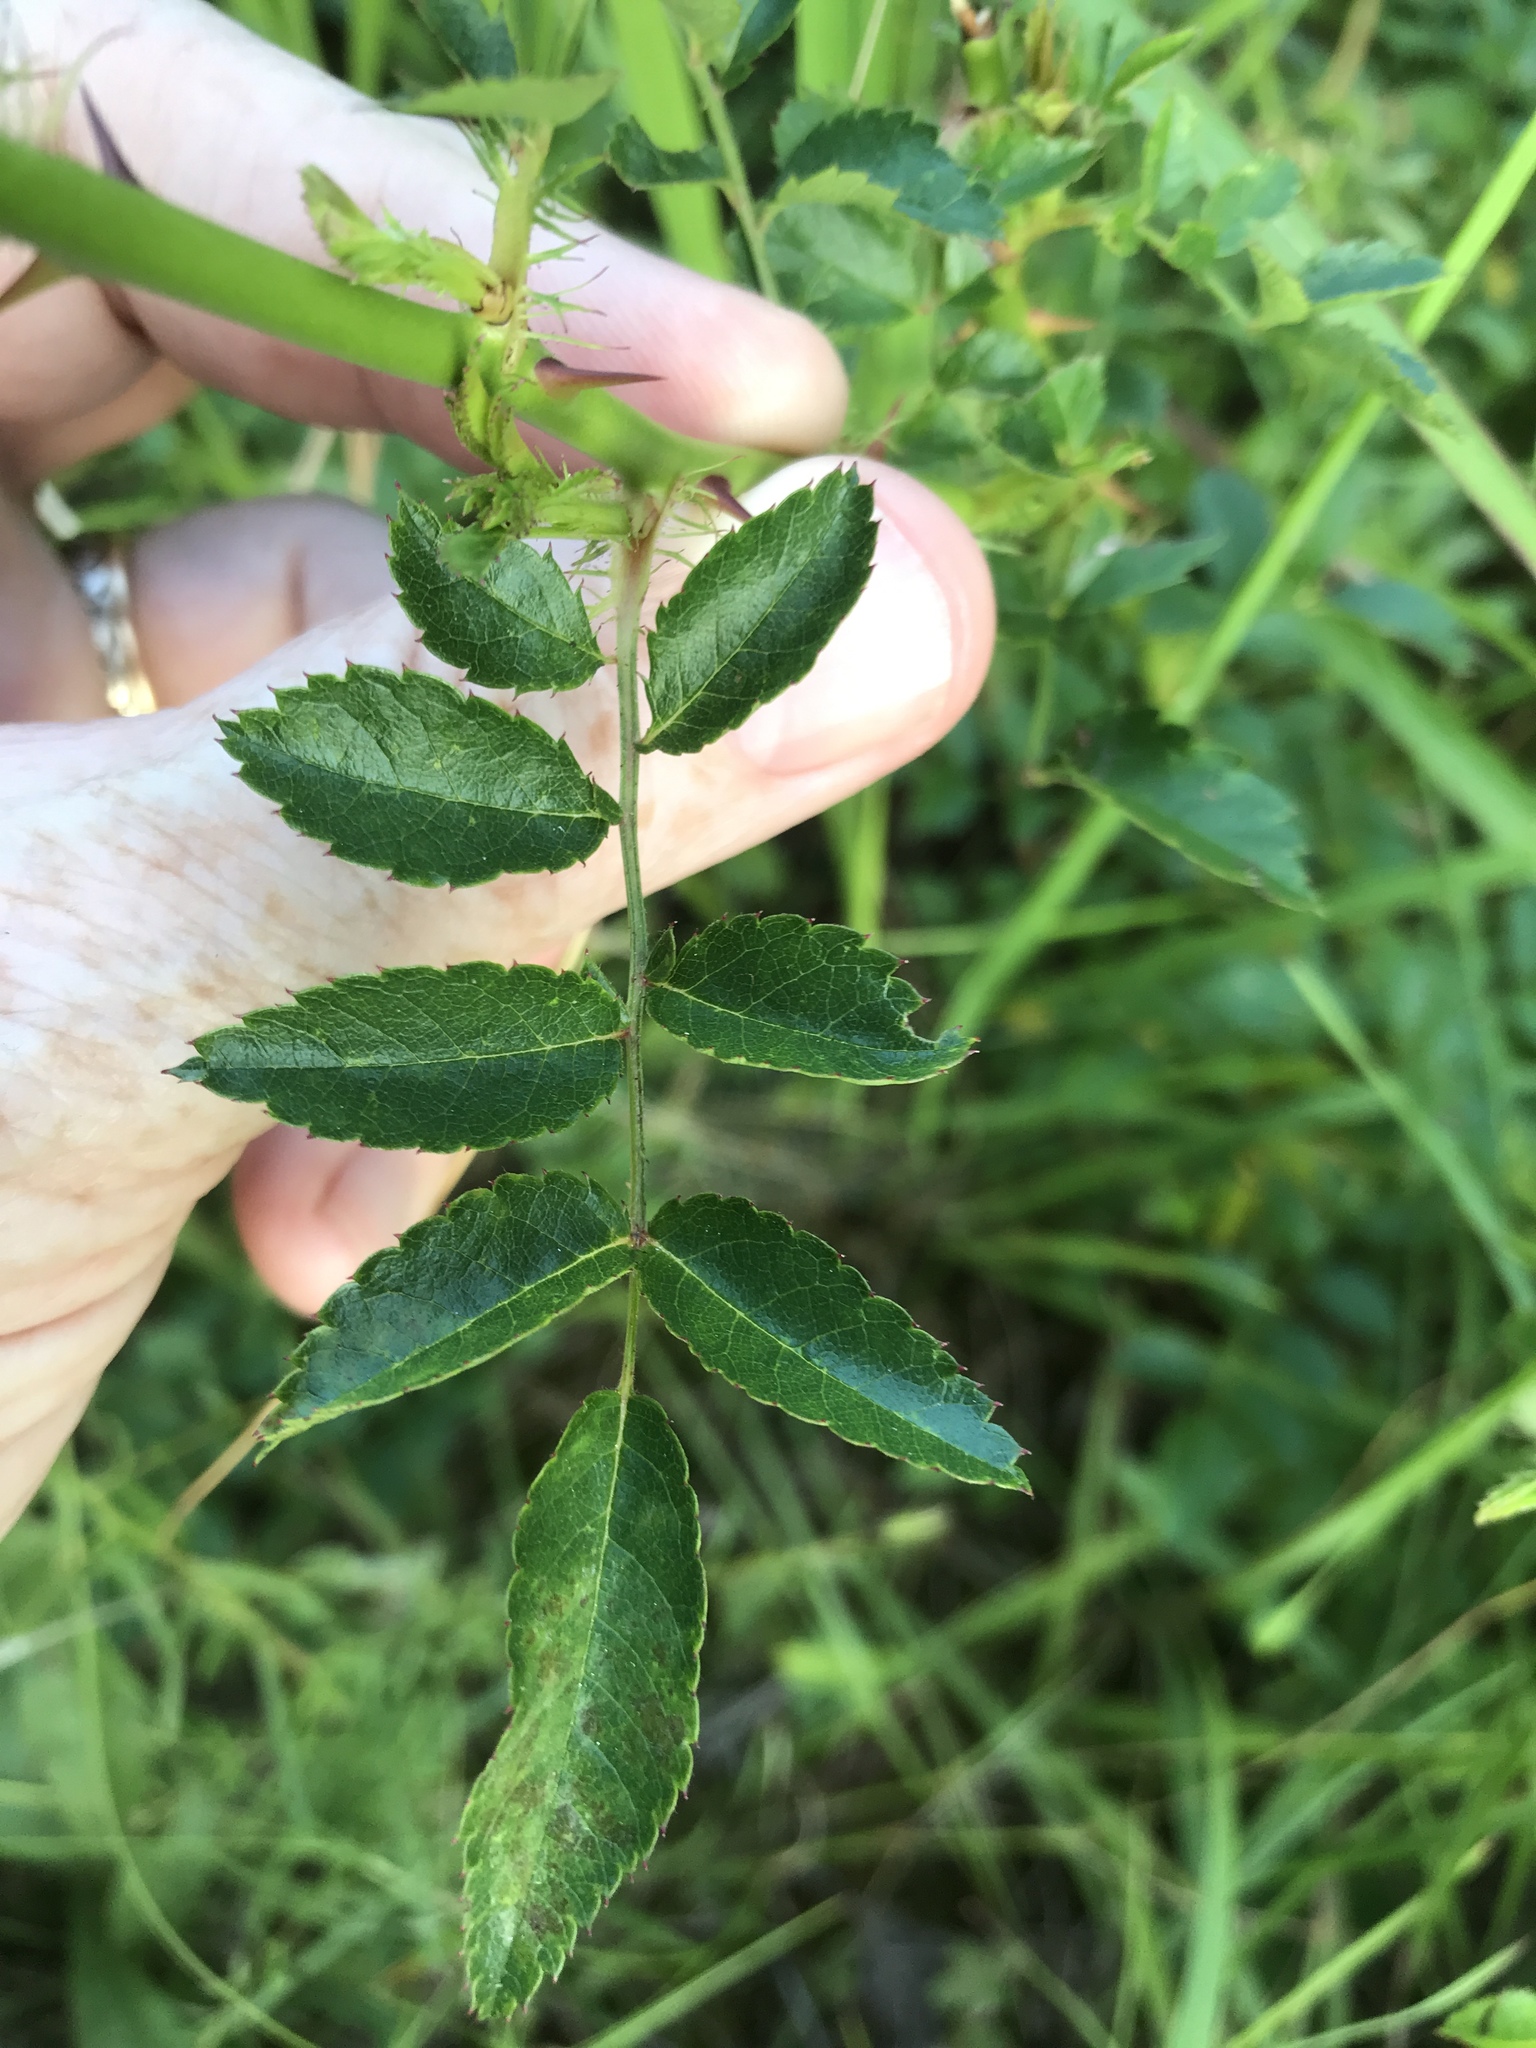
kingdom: Plantae
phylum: Tracheophyta
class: Magnoliopsida
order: Rosales
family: Rosaceae
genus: Rosa
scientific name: Rosa multiflora
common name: Multiflora rose
